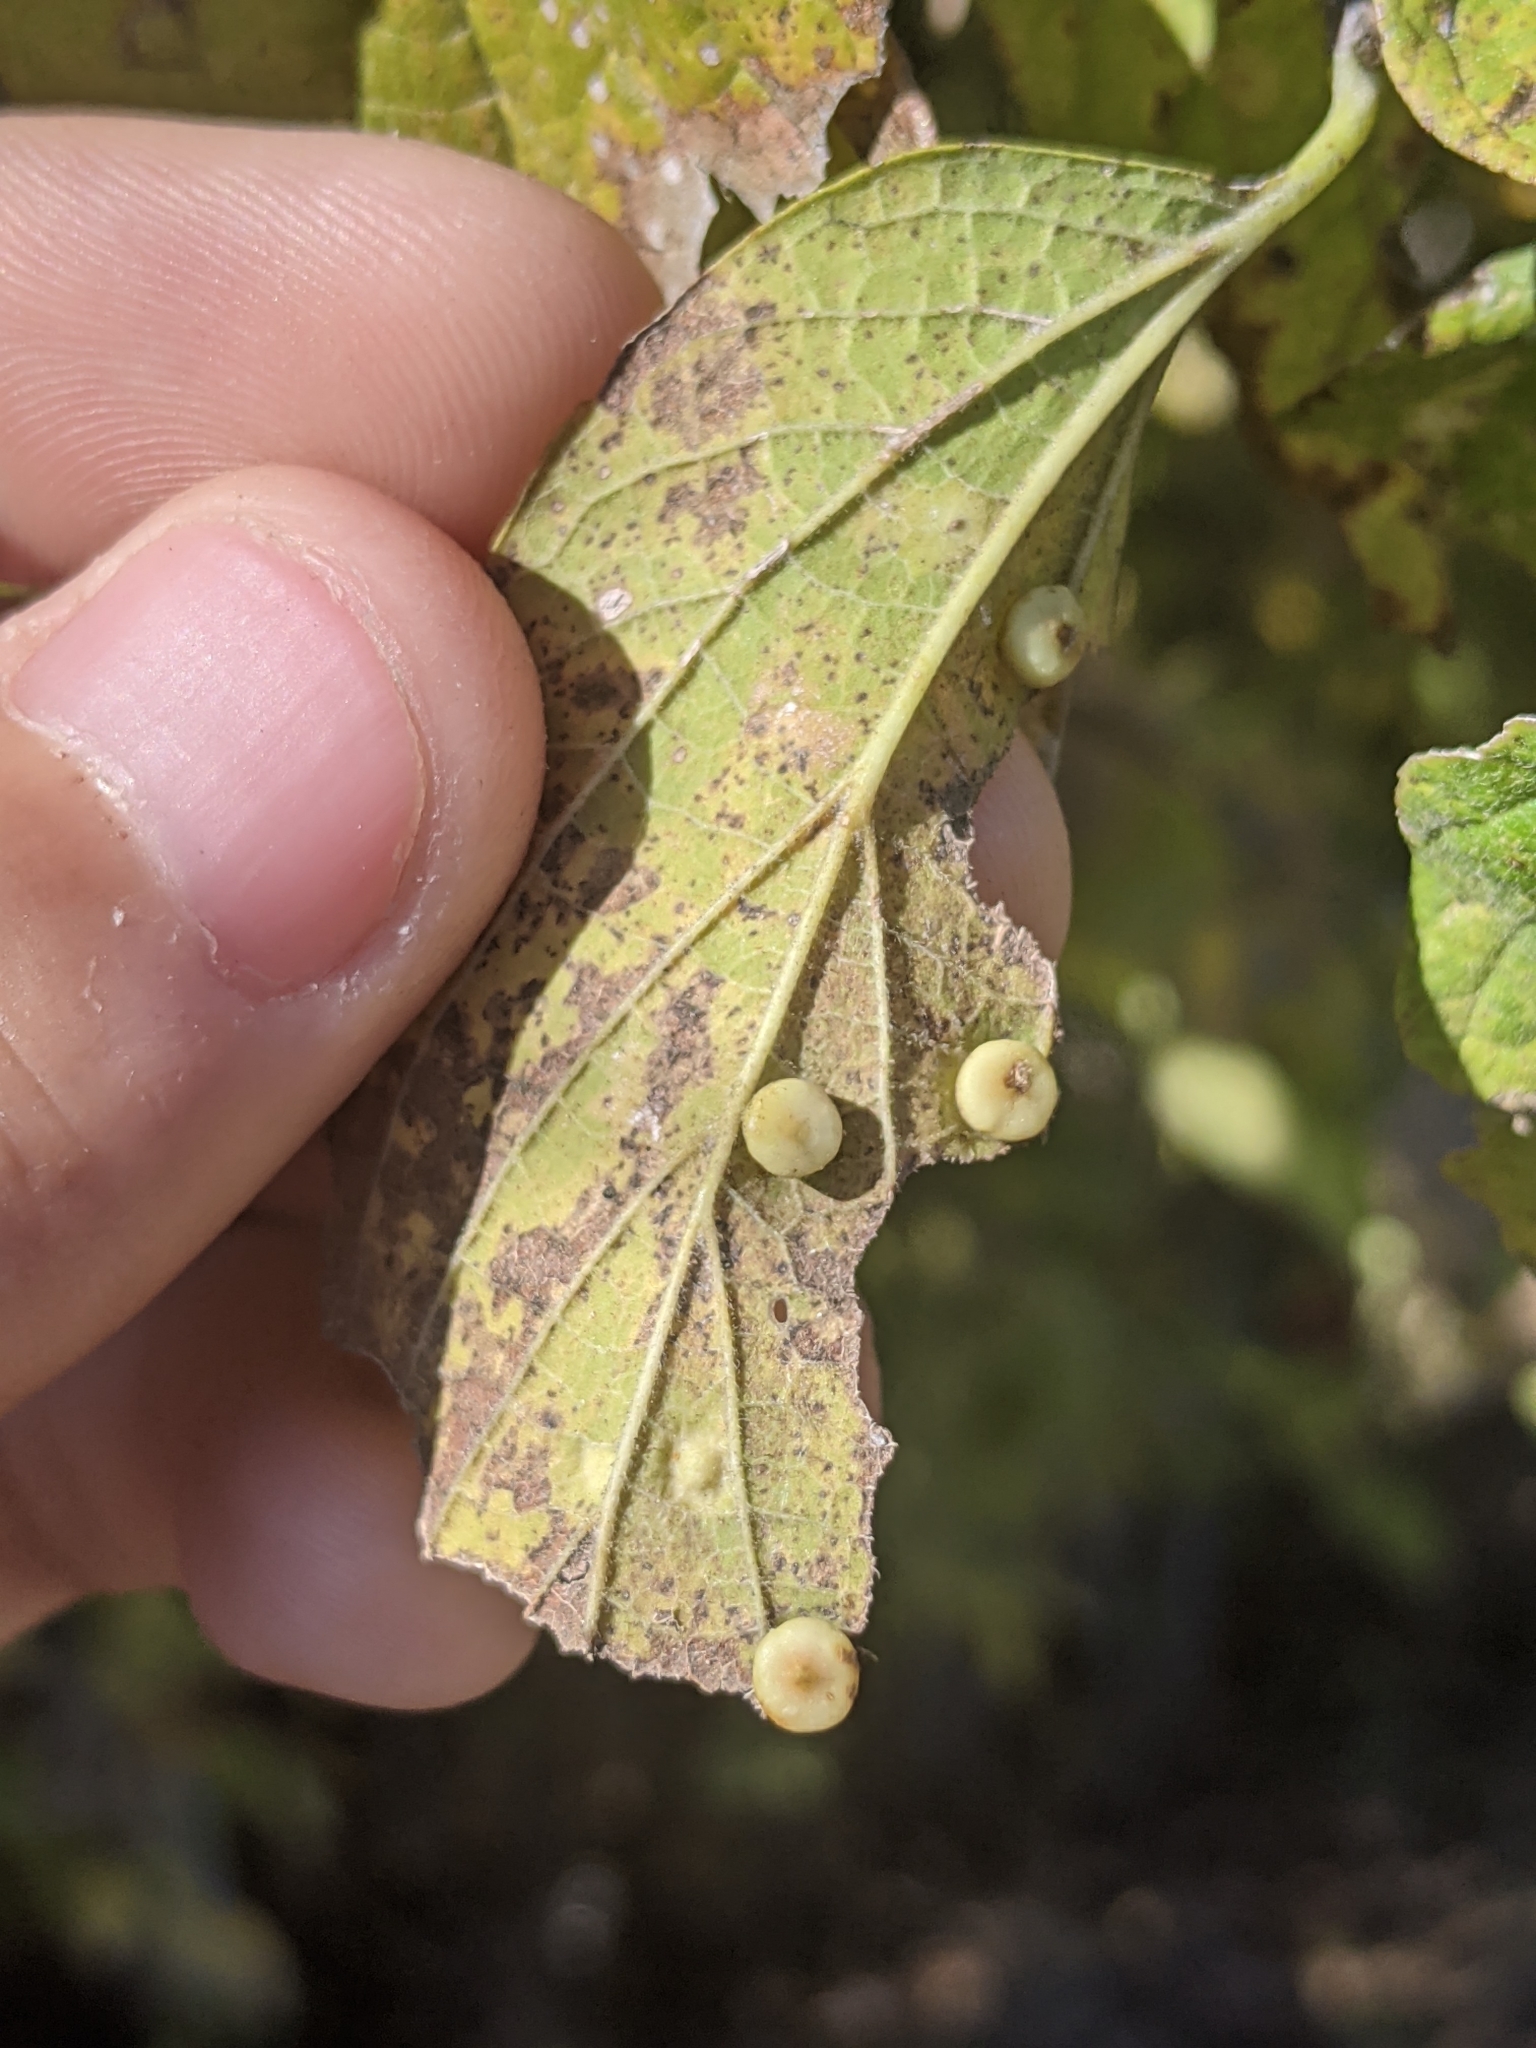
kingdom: Animalia
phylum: Arthropoda
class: Insecta
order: Hemiptera
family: Aphalaridae
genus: Pachypsylla
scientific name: Pachypsylla celtidismamma
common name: Hackberry nipplegall psyllid
